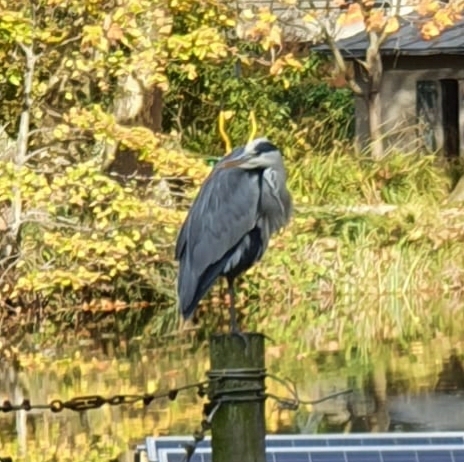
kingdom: Animalia
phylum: Chordata
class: Aves
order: Pelecaniformes
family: Ardeidae
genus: Ardea
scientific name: Ardea cinerea
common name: Grey heron
